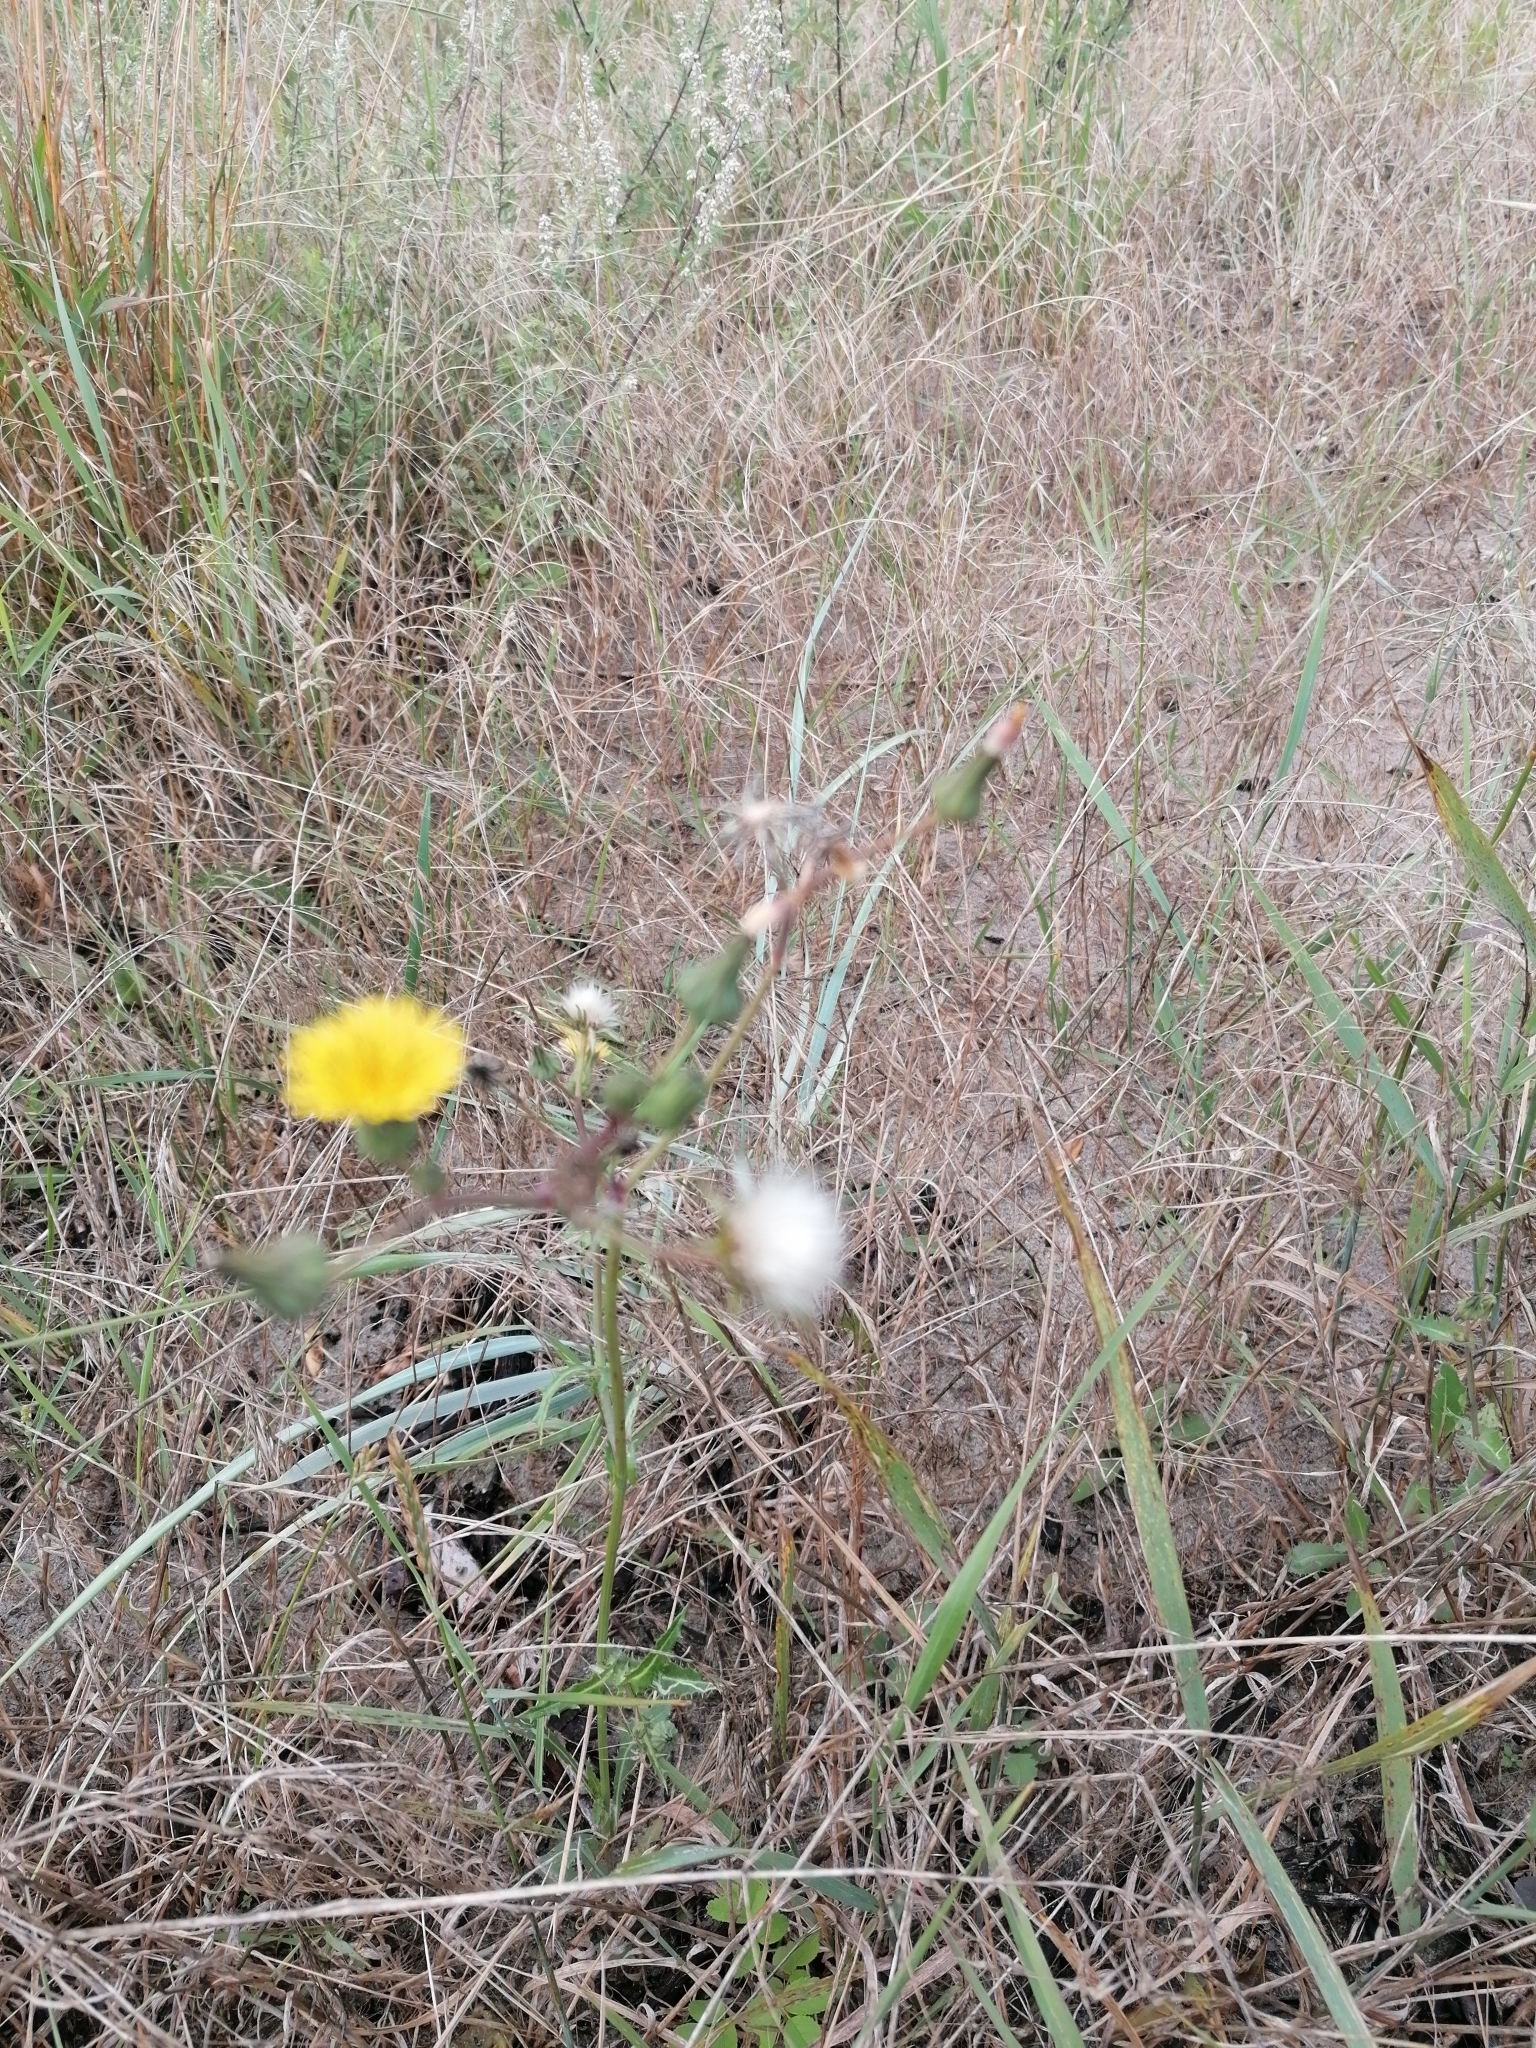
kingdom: Plantae
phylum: Tracheophyta
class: Magnoliopsida
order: Asterales
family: Asteraceae
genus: Sonchus
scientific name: Sonchus oleraceus
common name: Common sowthistle
